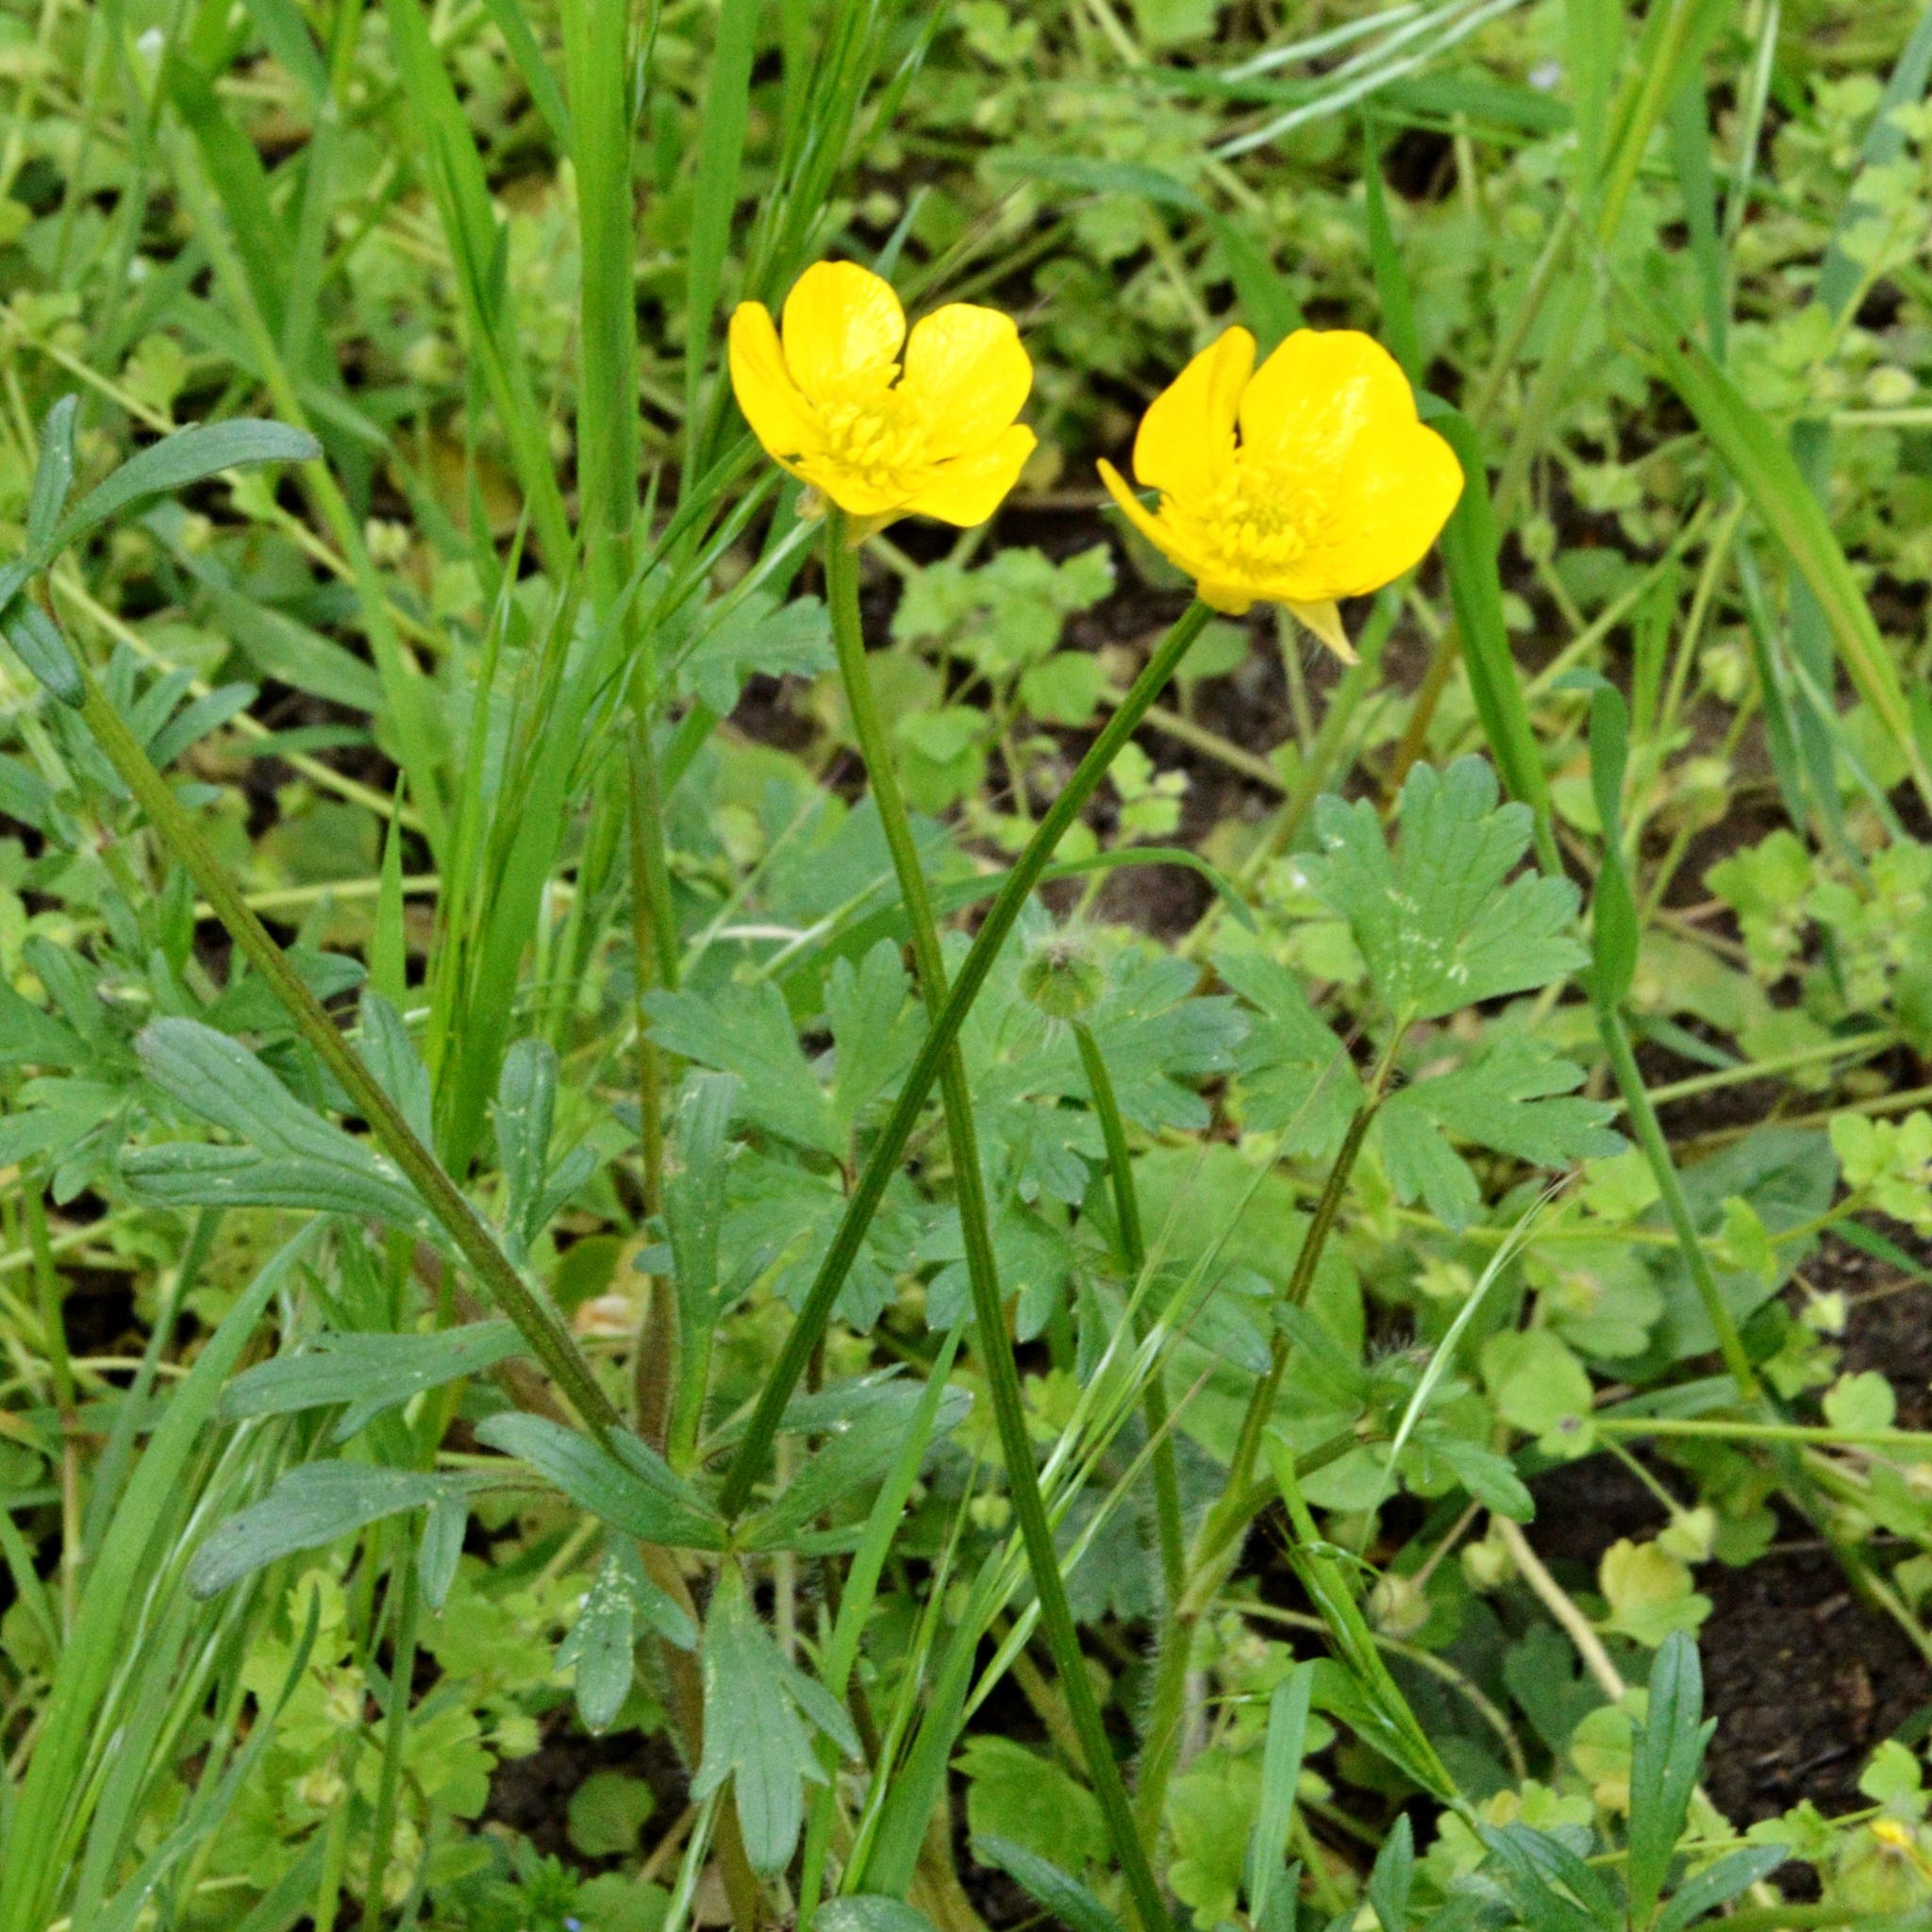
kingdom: Plantae
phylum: Tracheophyta
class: Magnoliopsida
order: Ranunculales
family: Ranunculaceae
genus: Ranunculus
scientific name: Ranunculus bulbosus
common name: Bulbous buttercup
